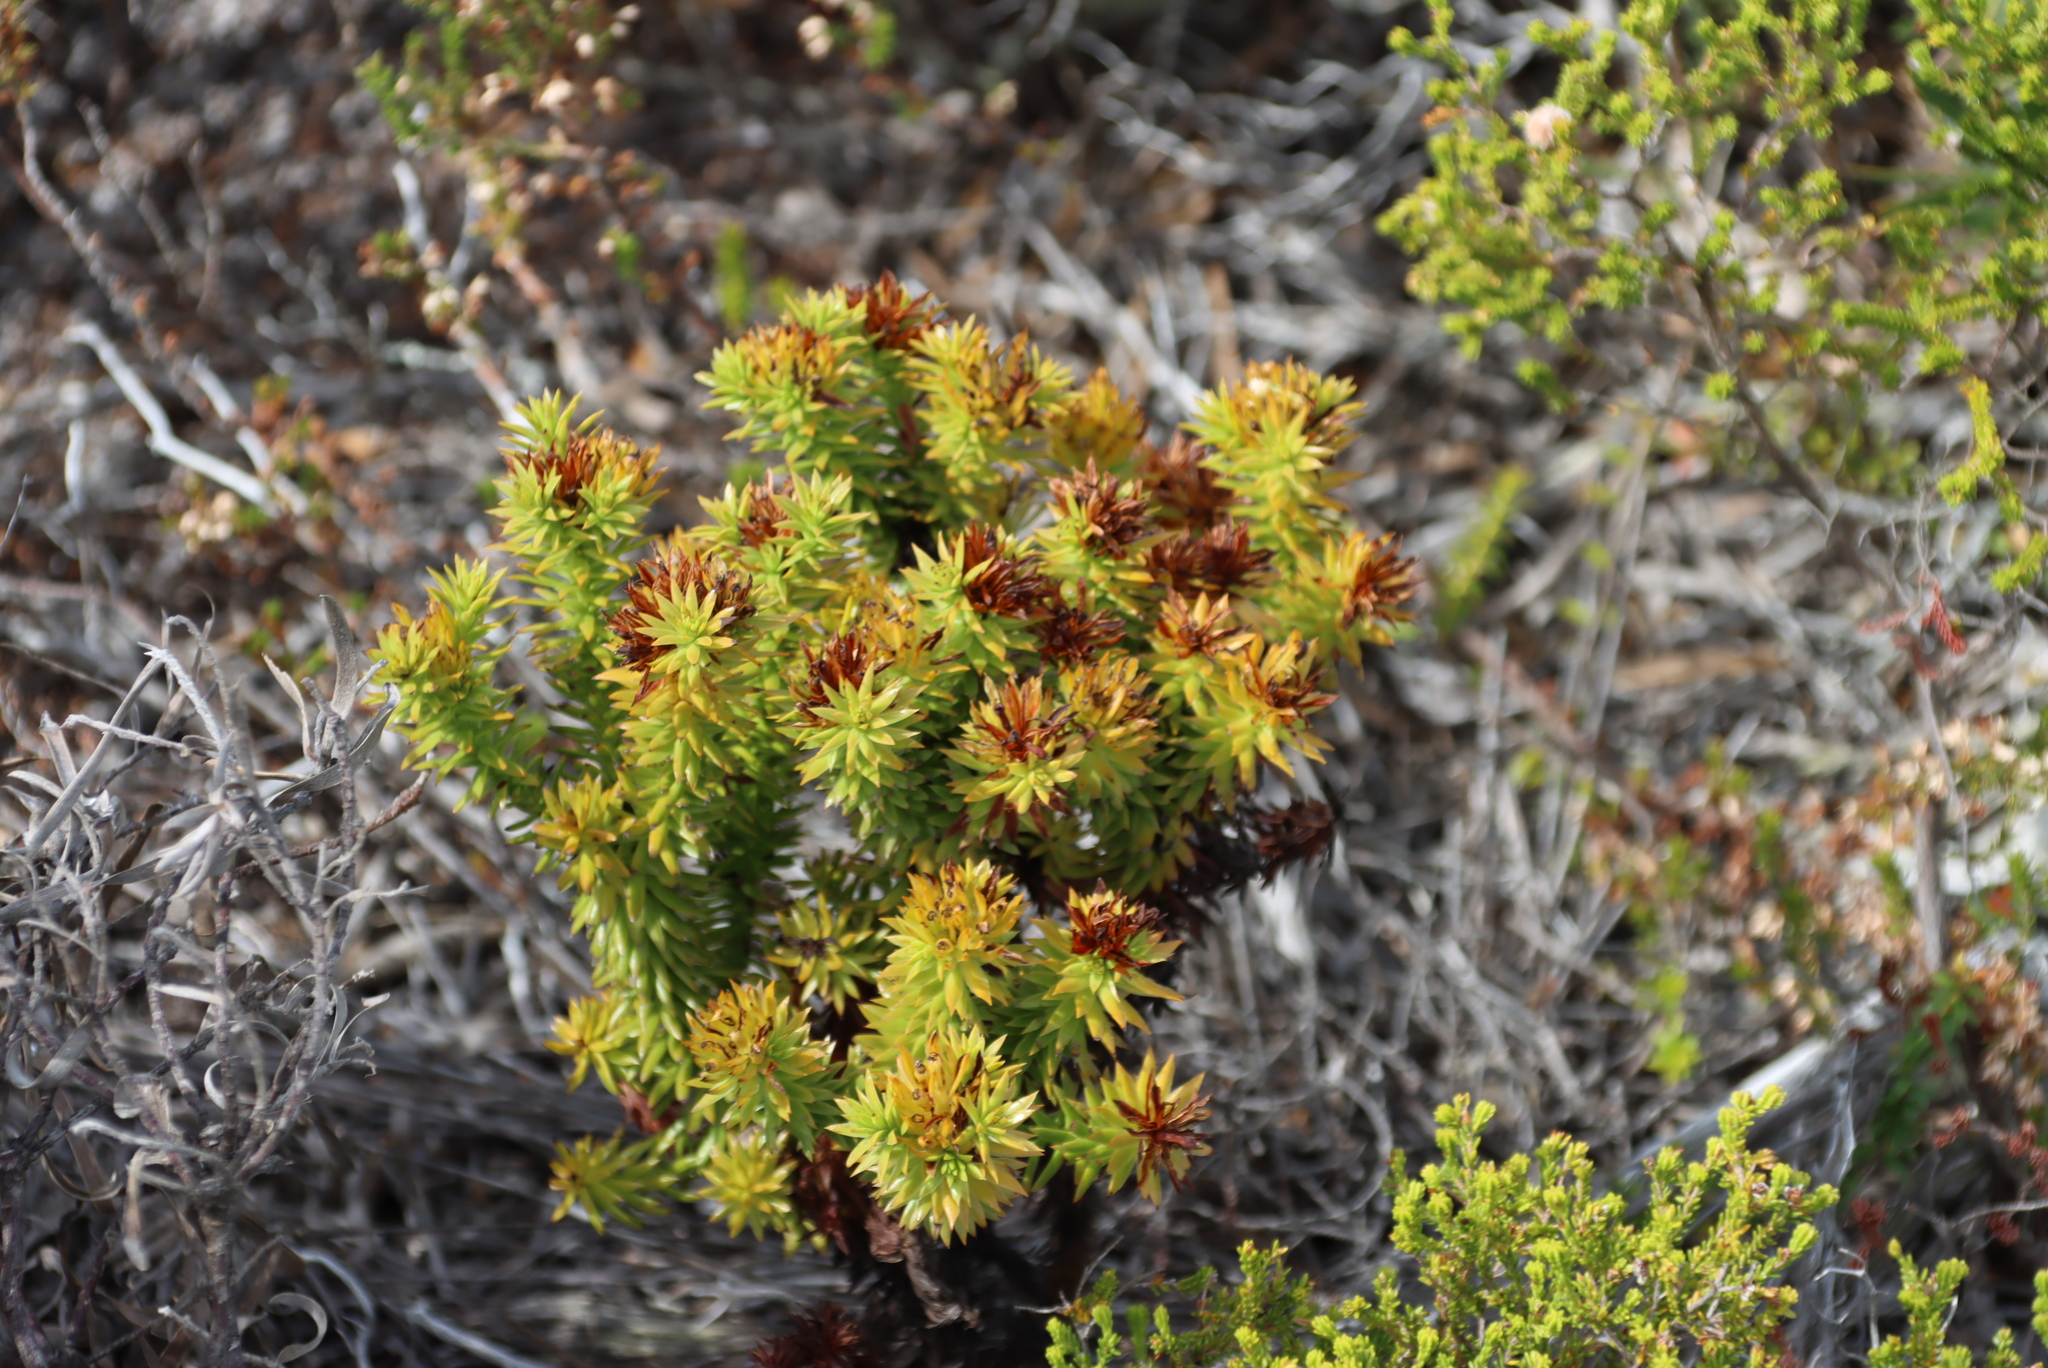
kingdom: Plantae
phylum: Tracheophyta
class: Magnoliopsida
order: Santalales
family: Thesiaceae
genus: Thesium
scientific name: Thesium viridifolium
